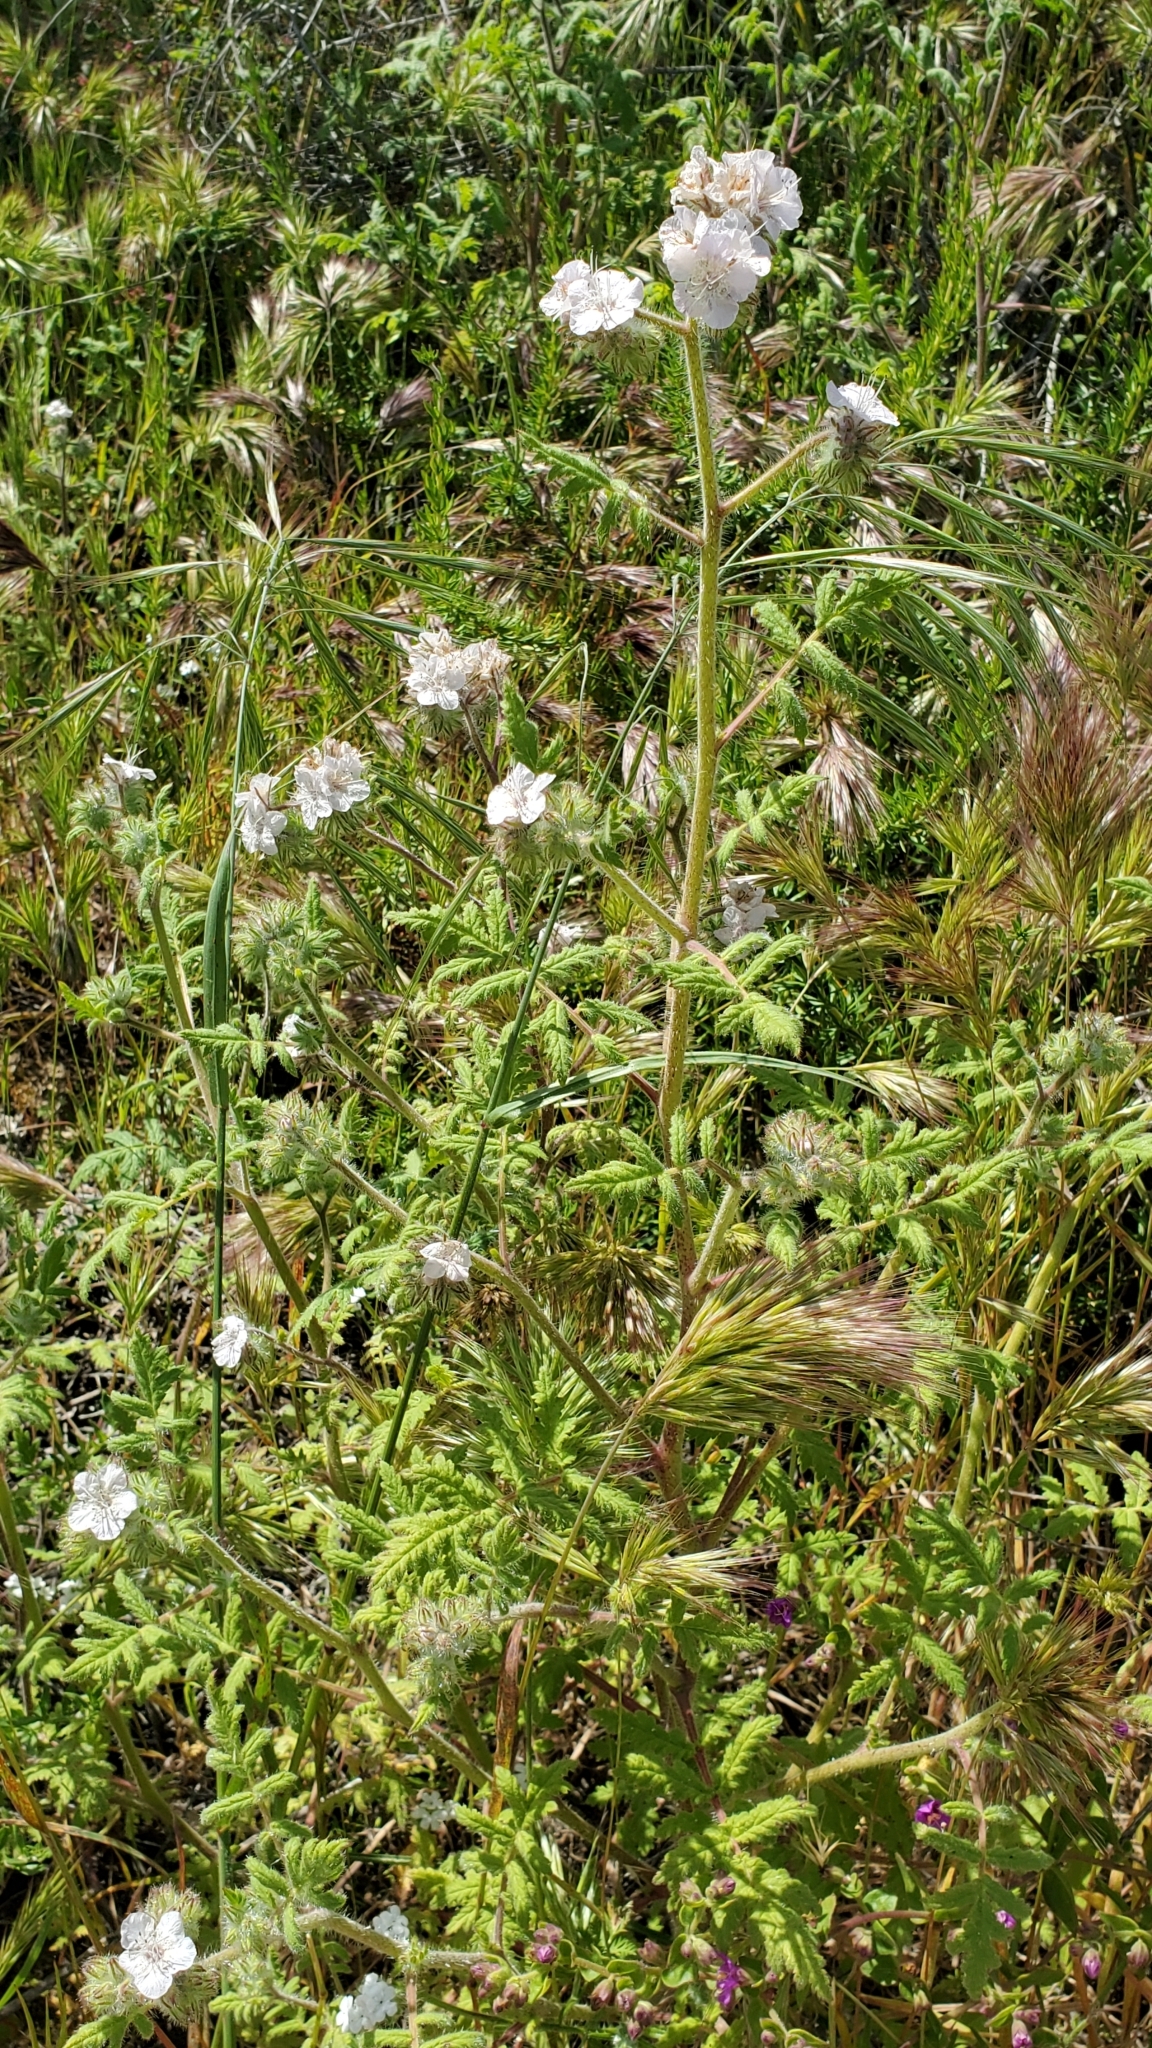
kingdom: Plantae
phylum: Tracheophyta
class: Magnoliopsida
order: Boraginales
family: Hydrophyllaceae
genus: Phacelia
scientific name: Phacelia cicutaria
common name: Caterpillar phacelia
